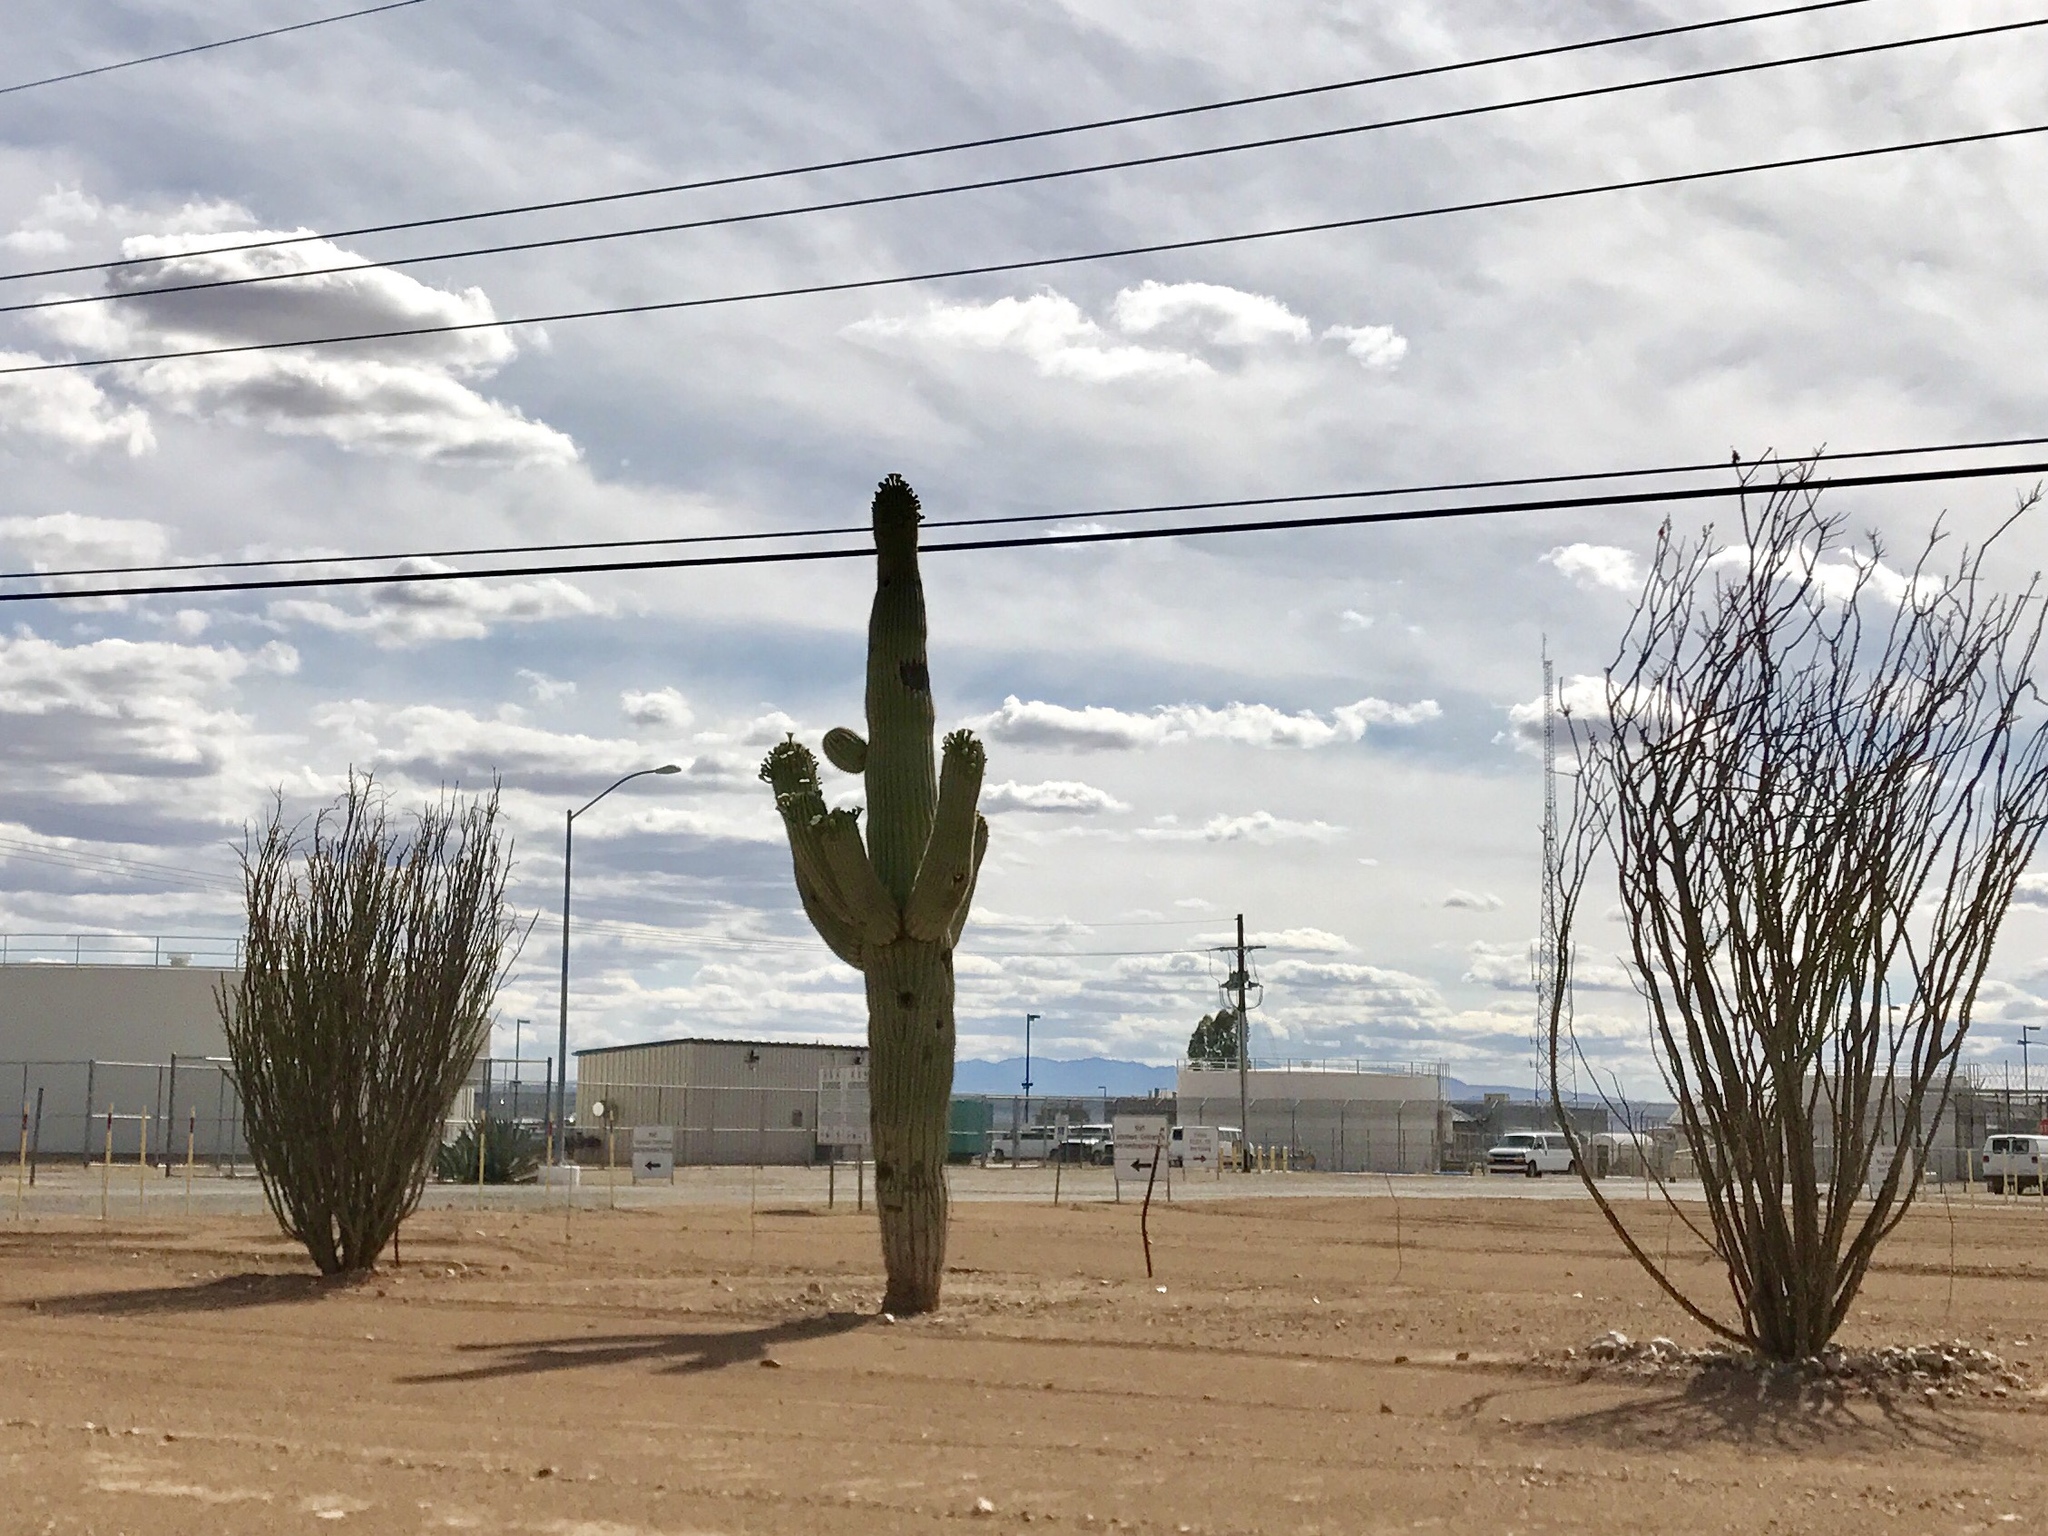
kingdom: Plantae
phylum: Tracheophyta
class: Magnoliopsida
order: Caryophyllales
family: Cactaceae
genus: Carnegiea
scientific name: Carnegiea gigantea
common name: Saguaro
